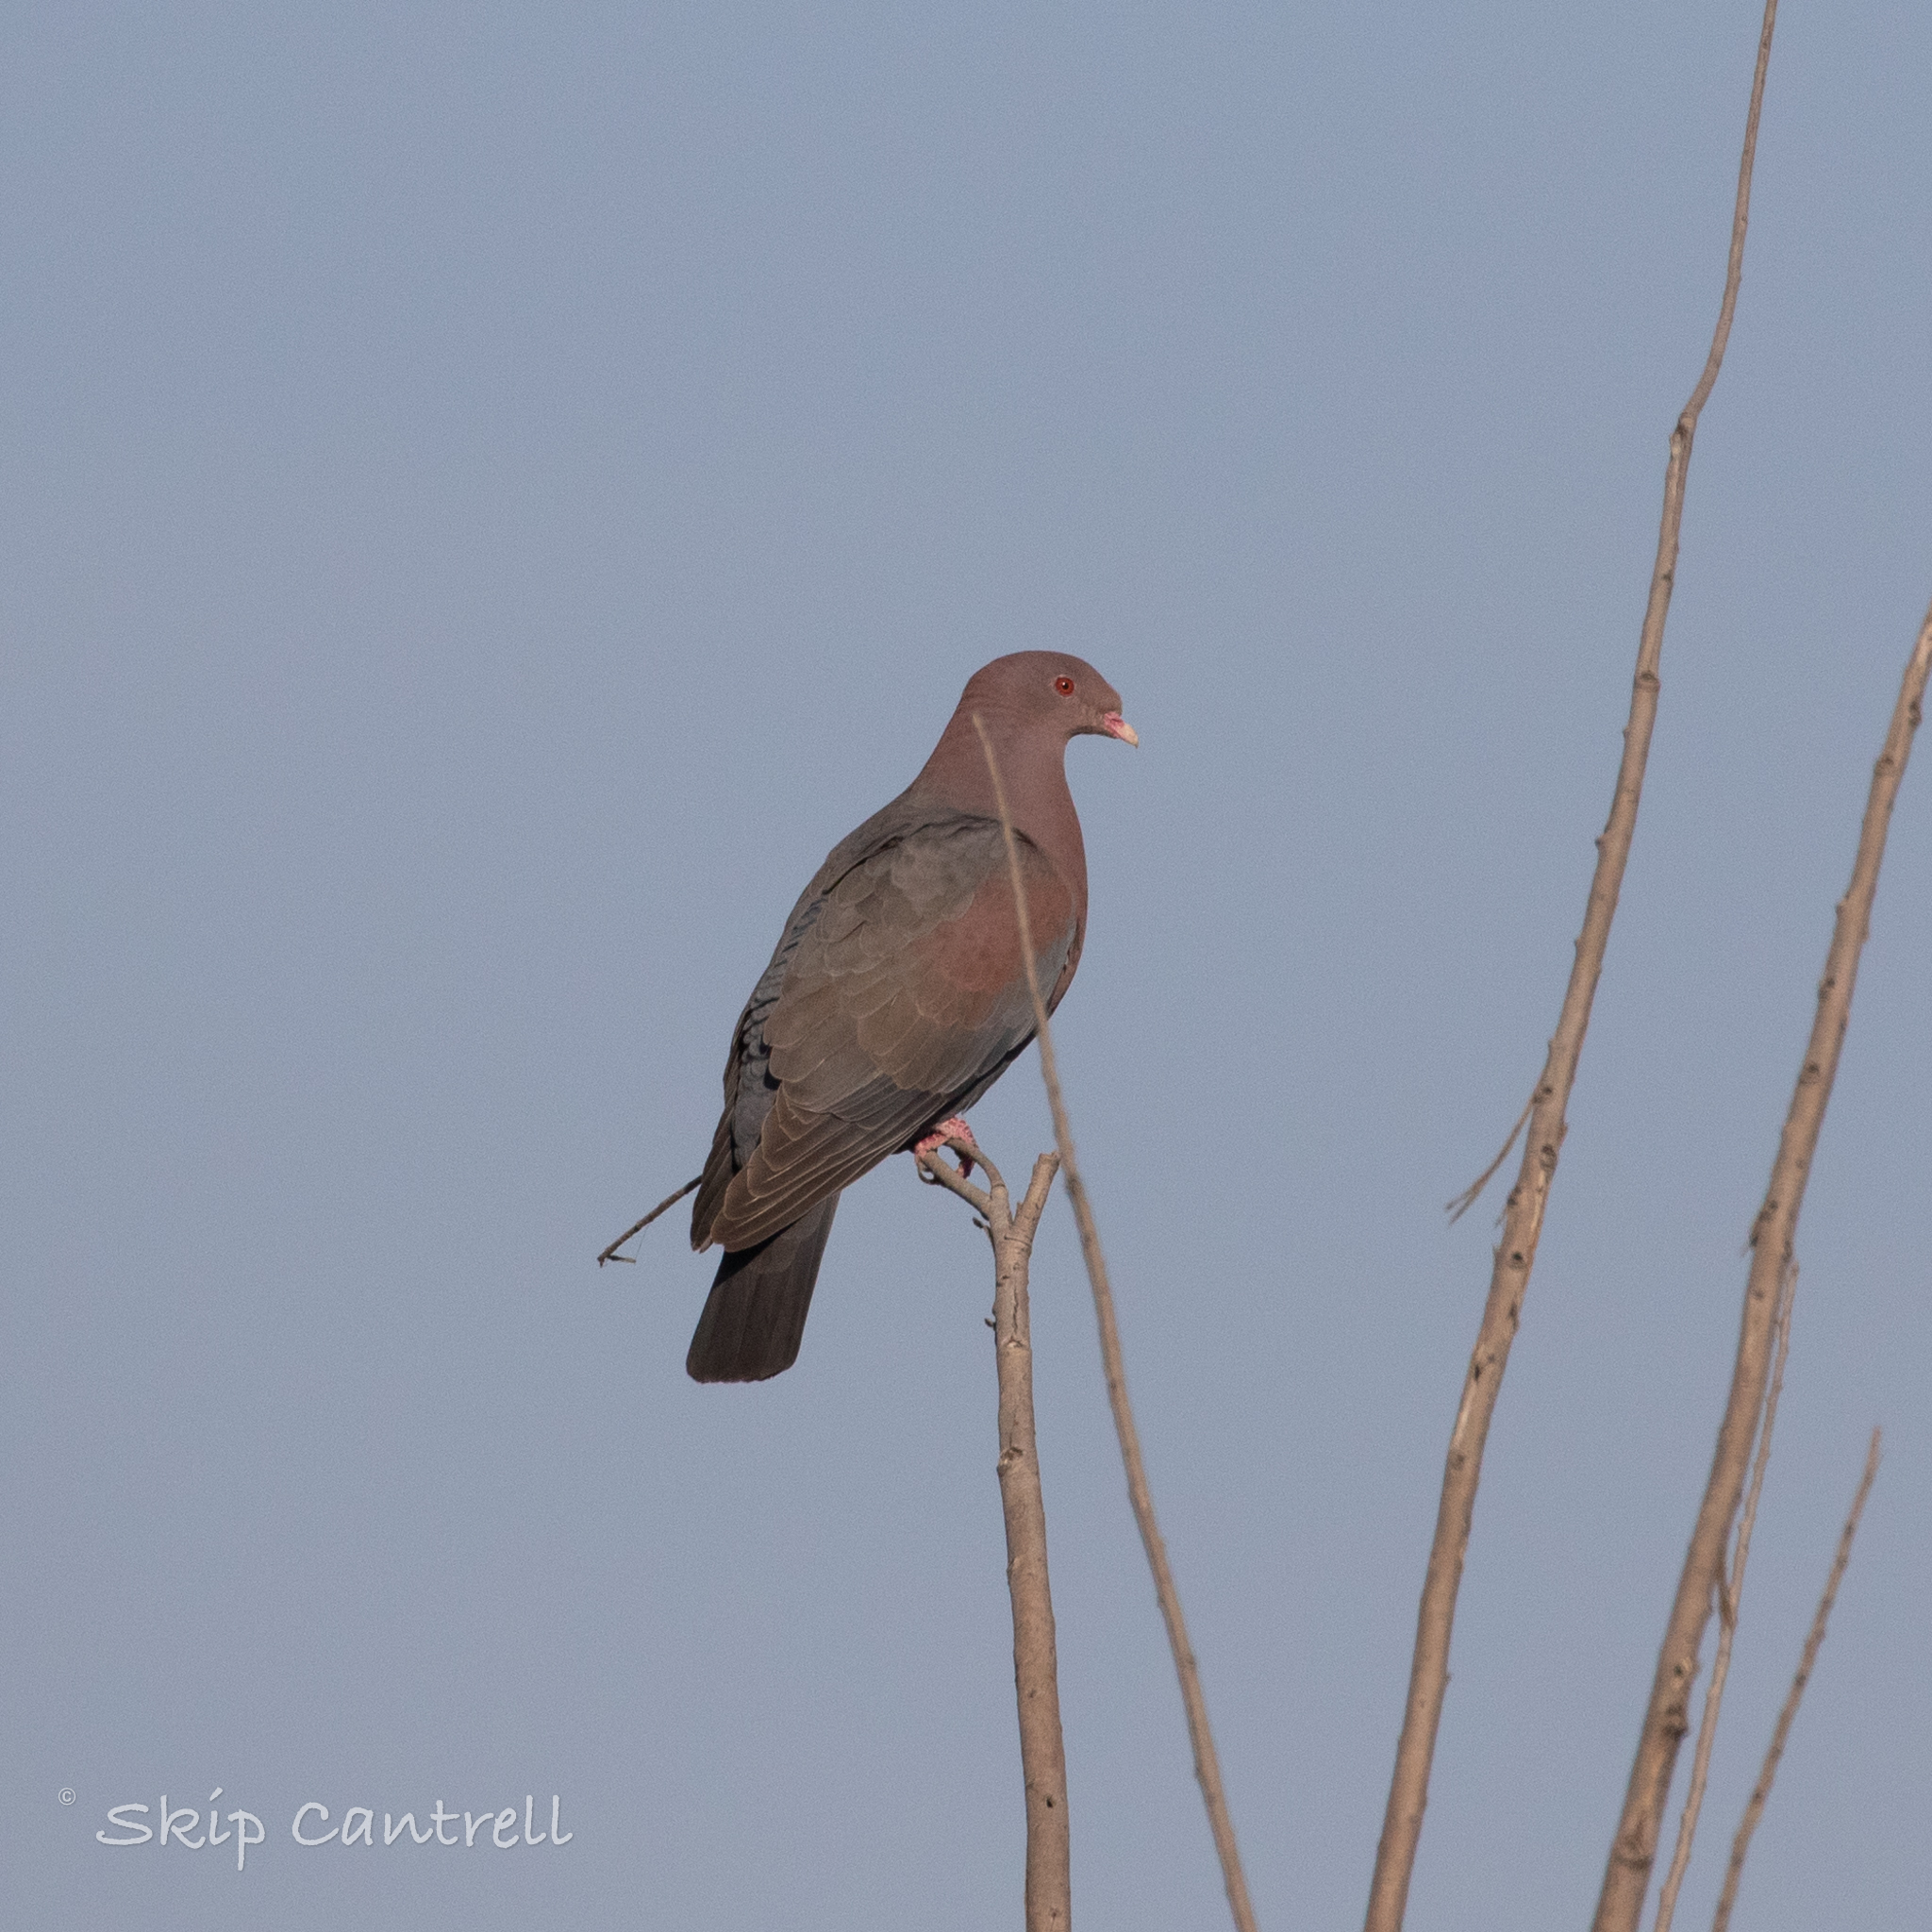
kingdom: Animalia
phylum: Chordata
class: Aves
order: Columbiformes
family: Columbidae
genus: Patagioenas
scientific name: Patagioenas flavirostris
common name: Red-billed pigeon
